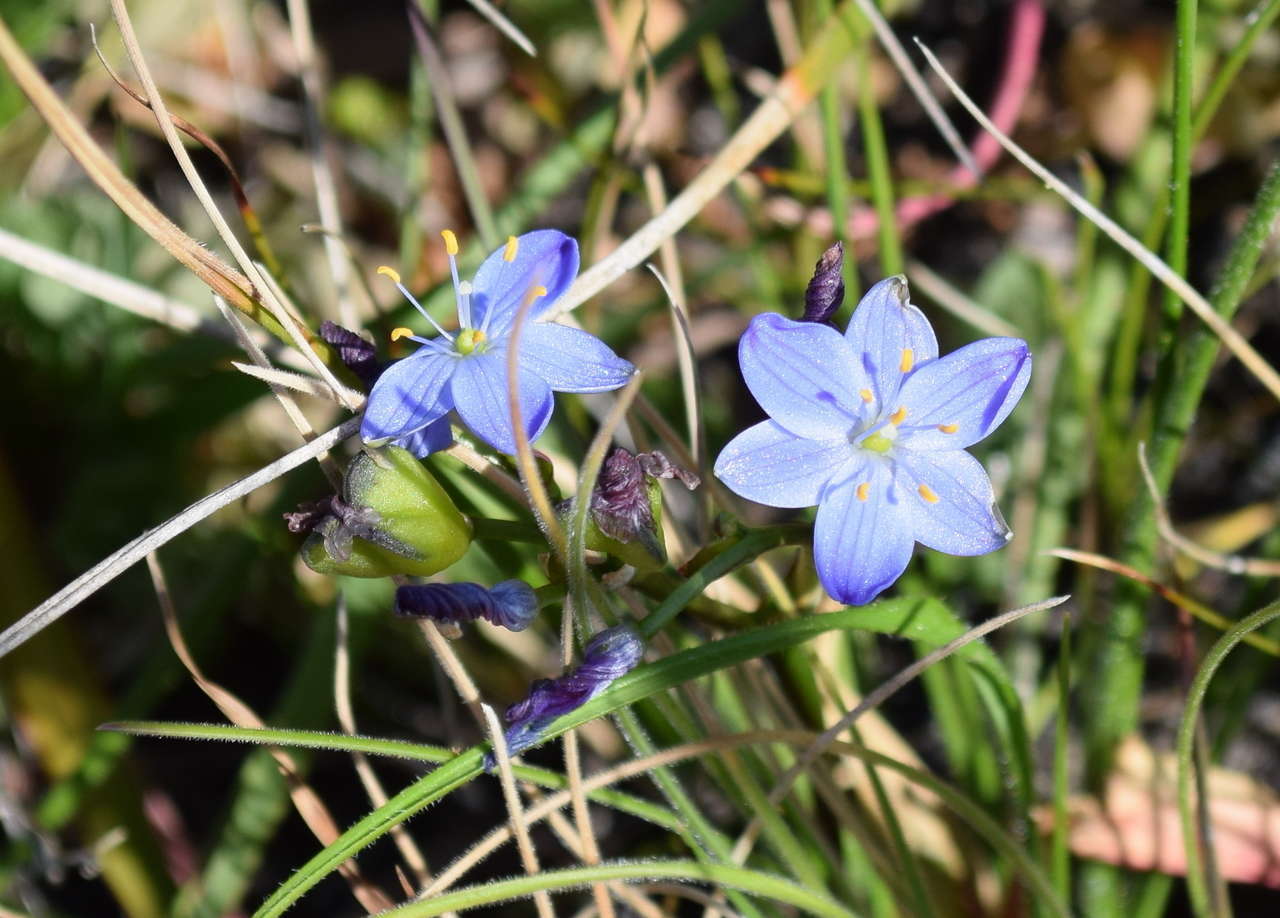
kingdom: Plantae
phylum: Tracheophyta
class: Liliopsida
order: Asparagales
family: Asphodelaceae
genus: Chamaescilla
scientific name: Chamaescilla corymbosa
